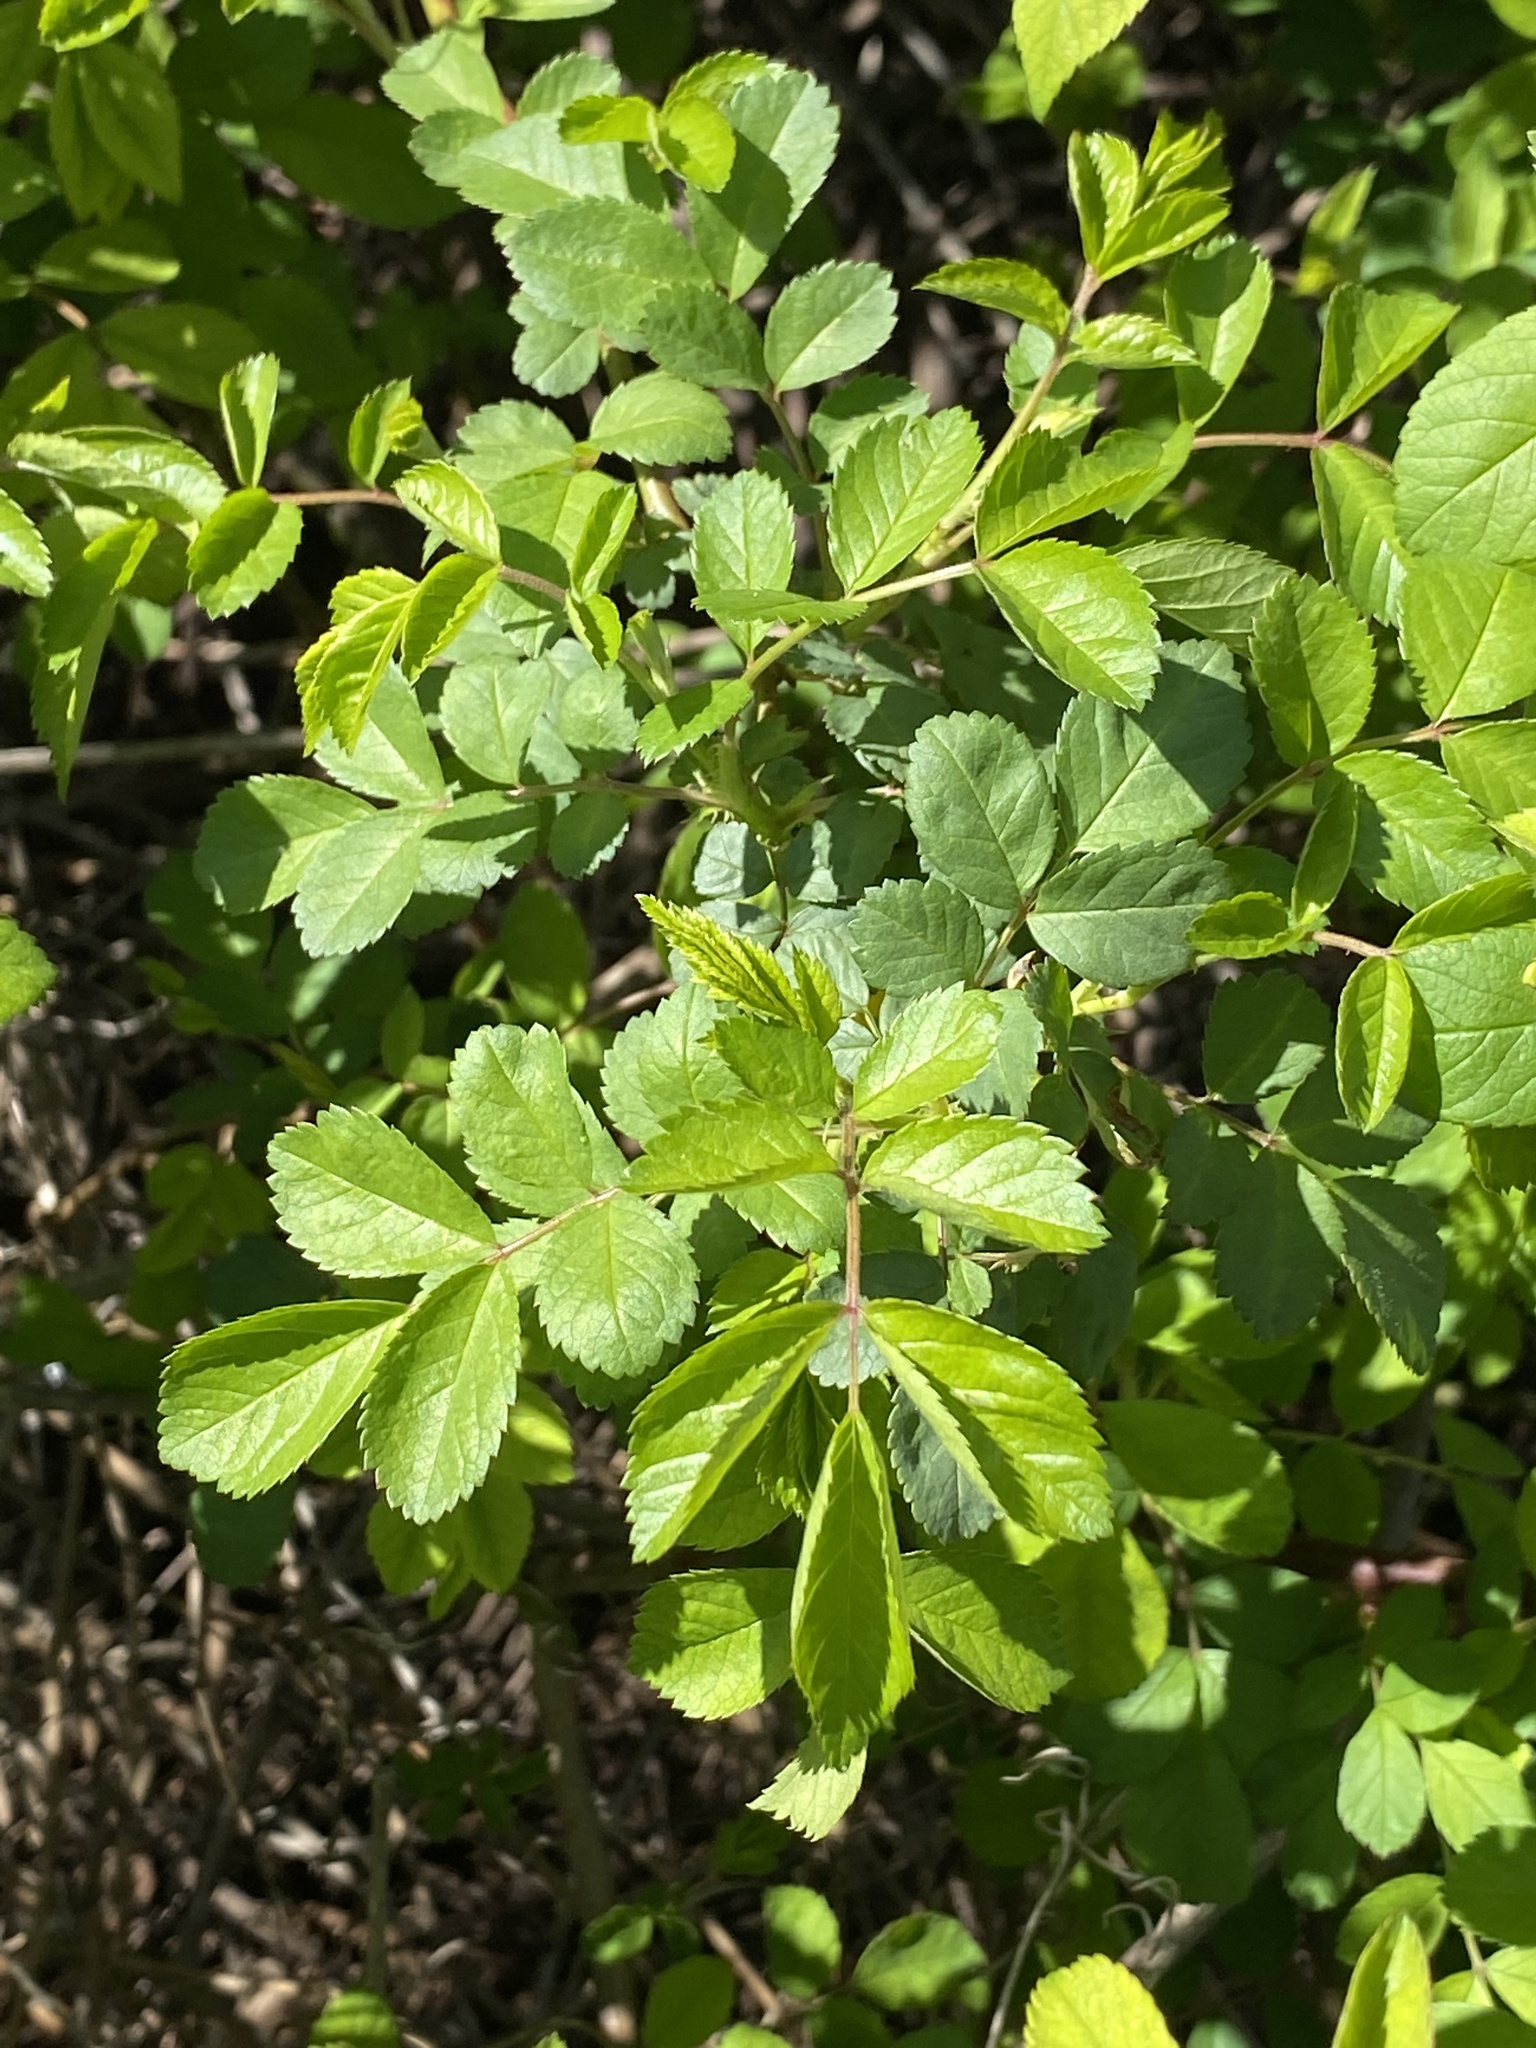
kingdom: Plantae
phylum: Tracheophyta
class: Magnoliopsida
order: Rosales
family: Rosaceae
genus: Rosa
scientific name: Rosa multiflora
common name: Multiflora rose
